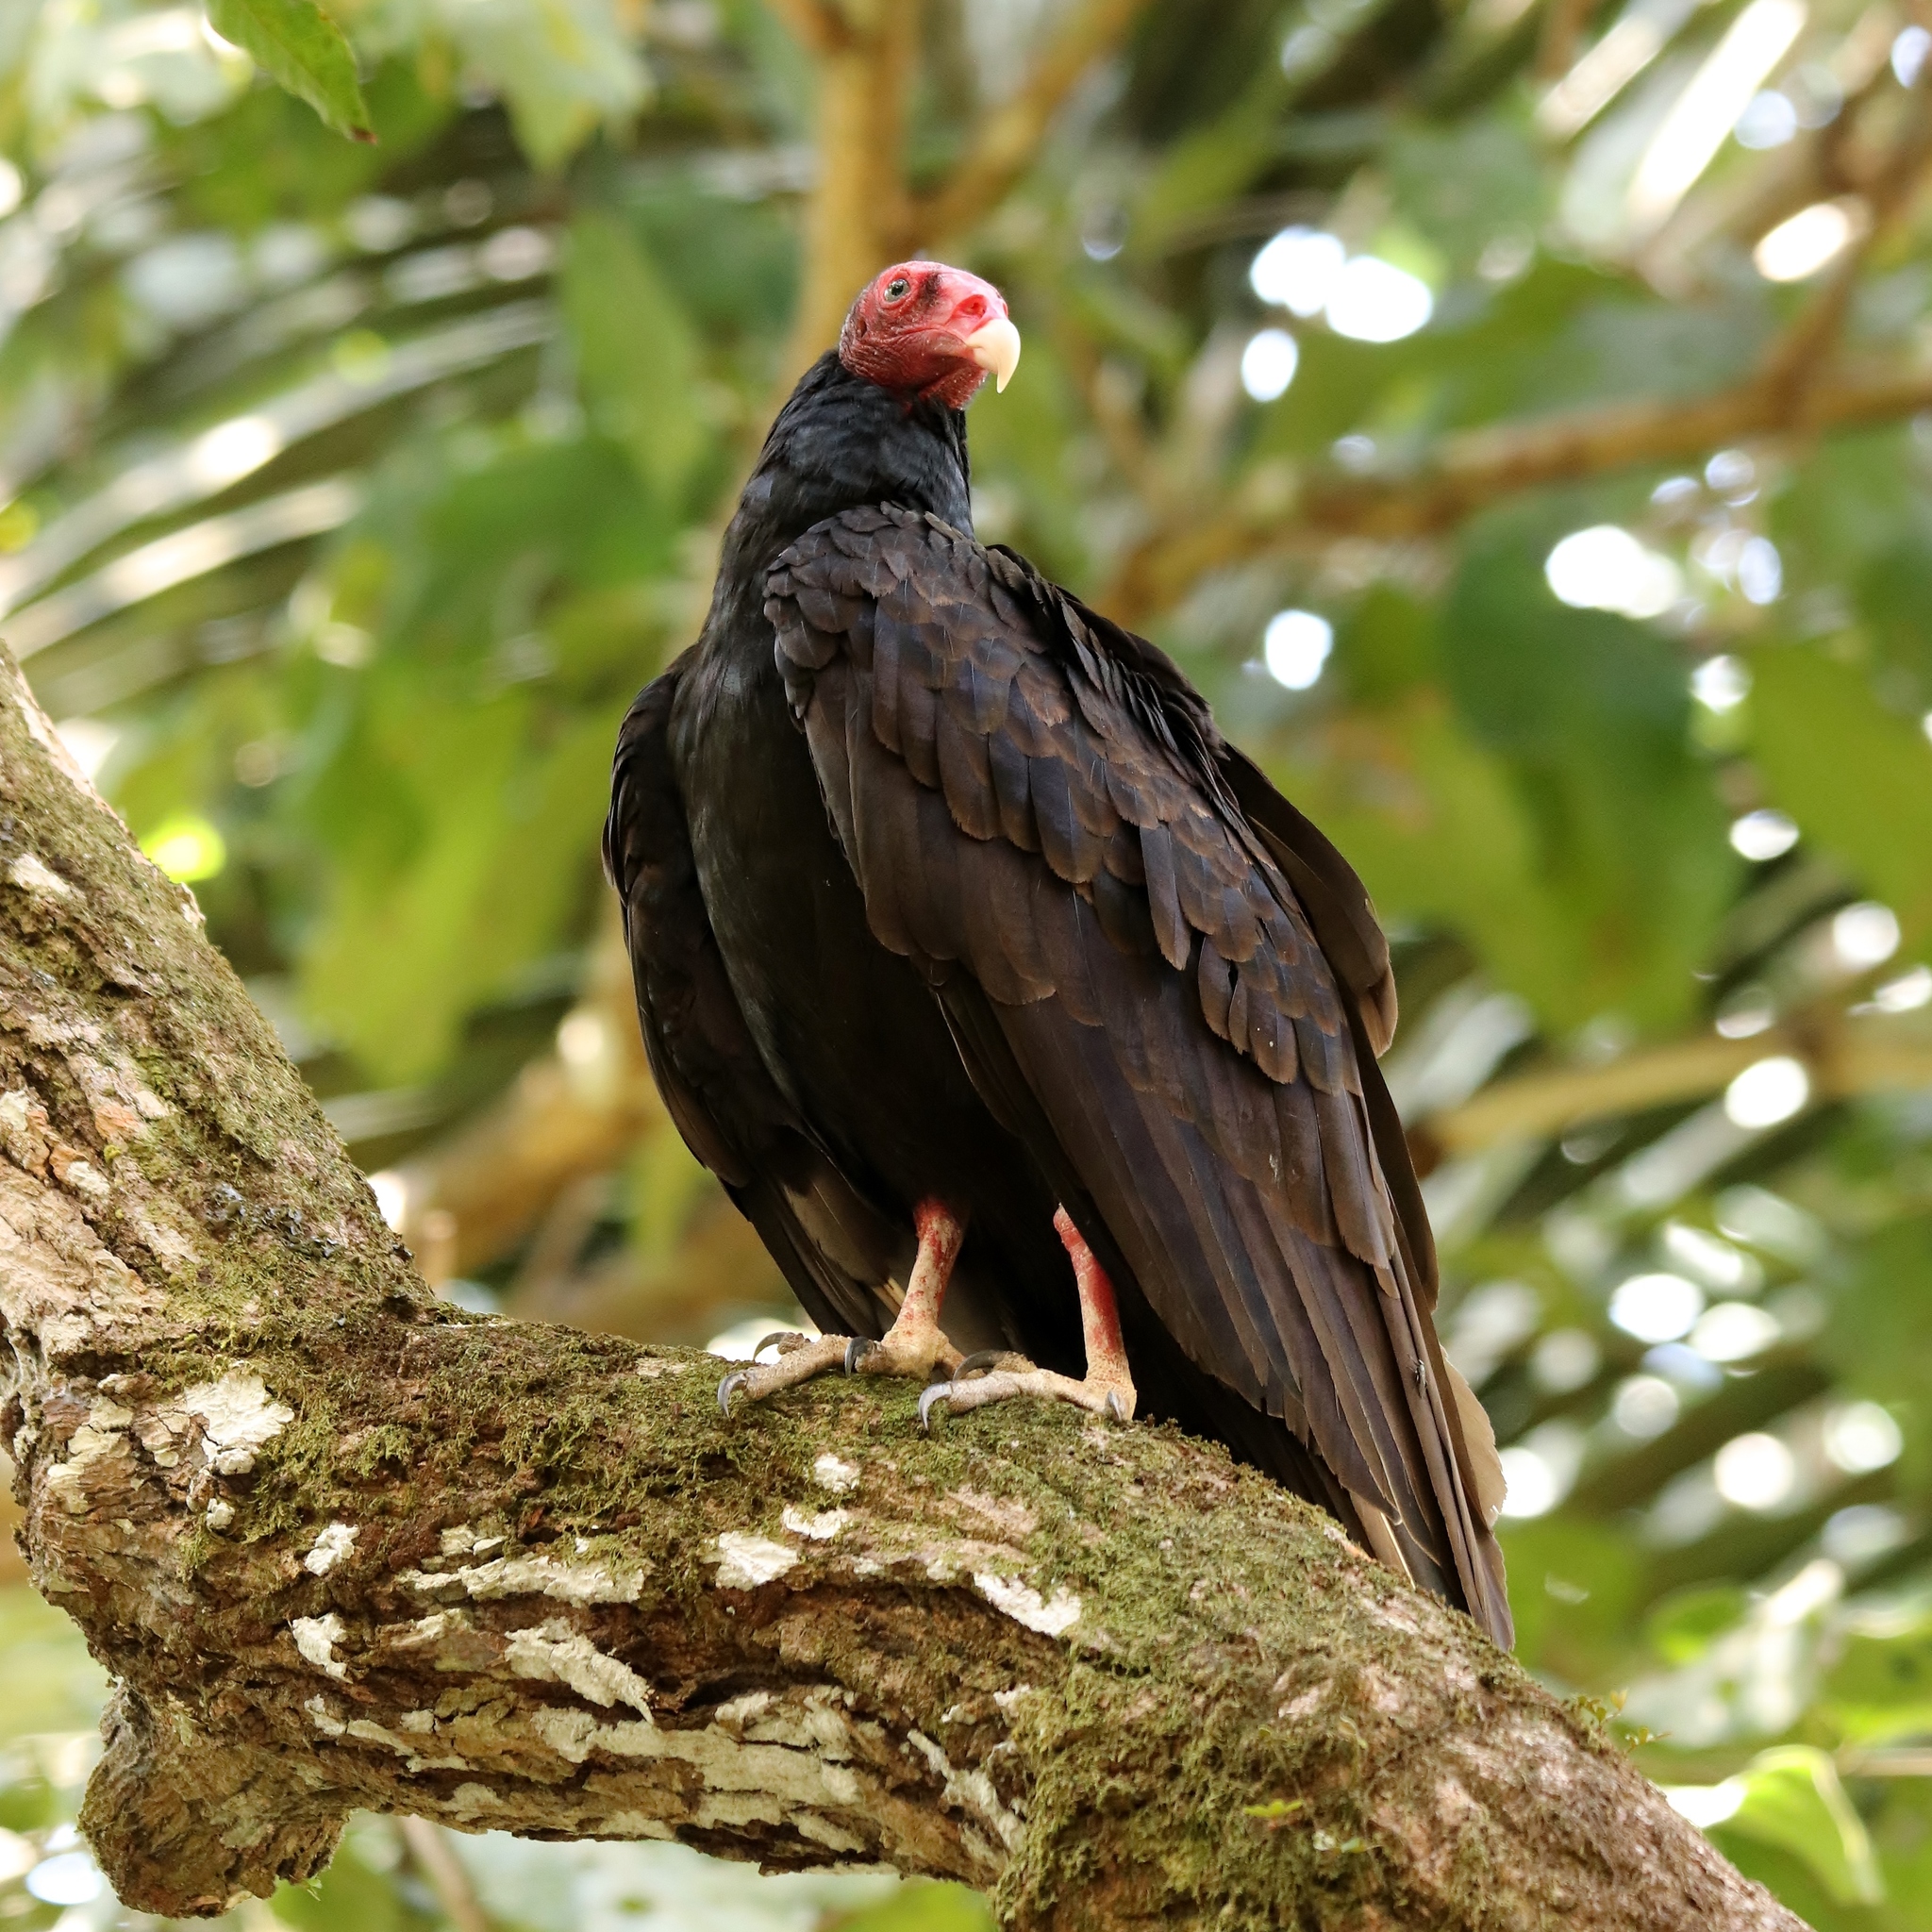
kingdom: Animalia
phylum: Chordata
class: Aves
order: Accipitriformes
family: Cathartidae
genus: Cathartes
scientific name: Cathartes aura
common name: Turkey vulture
